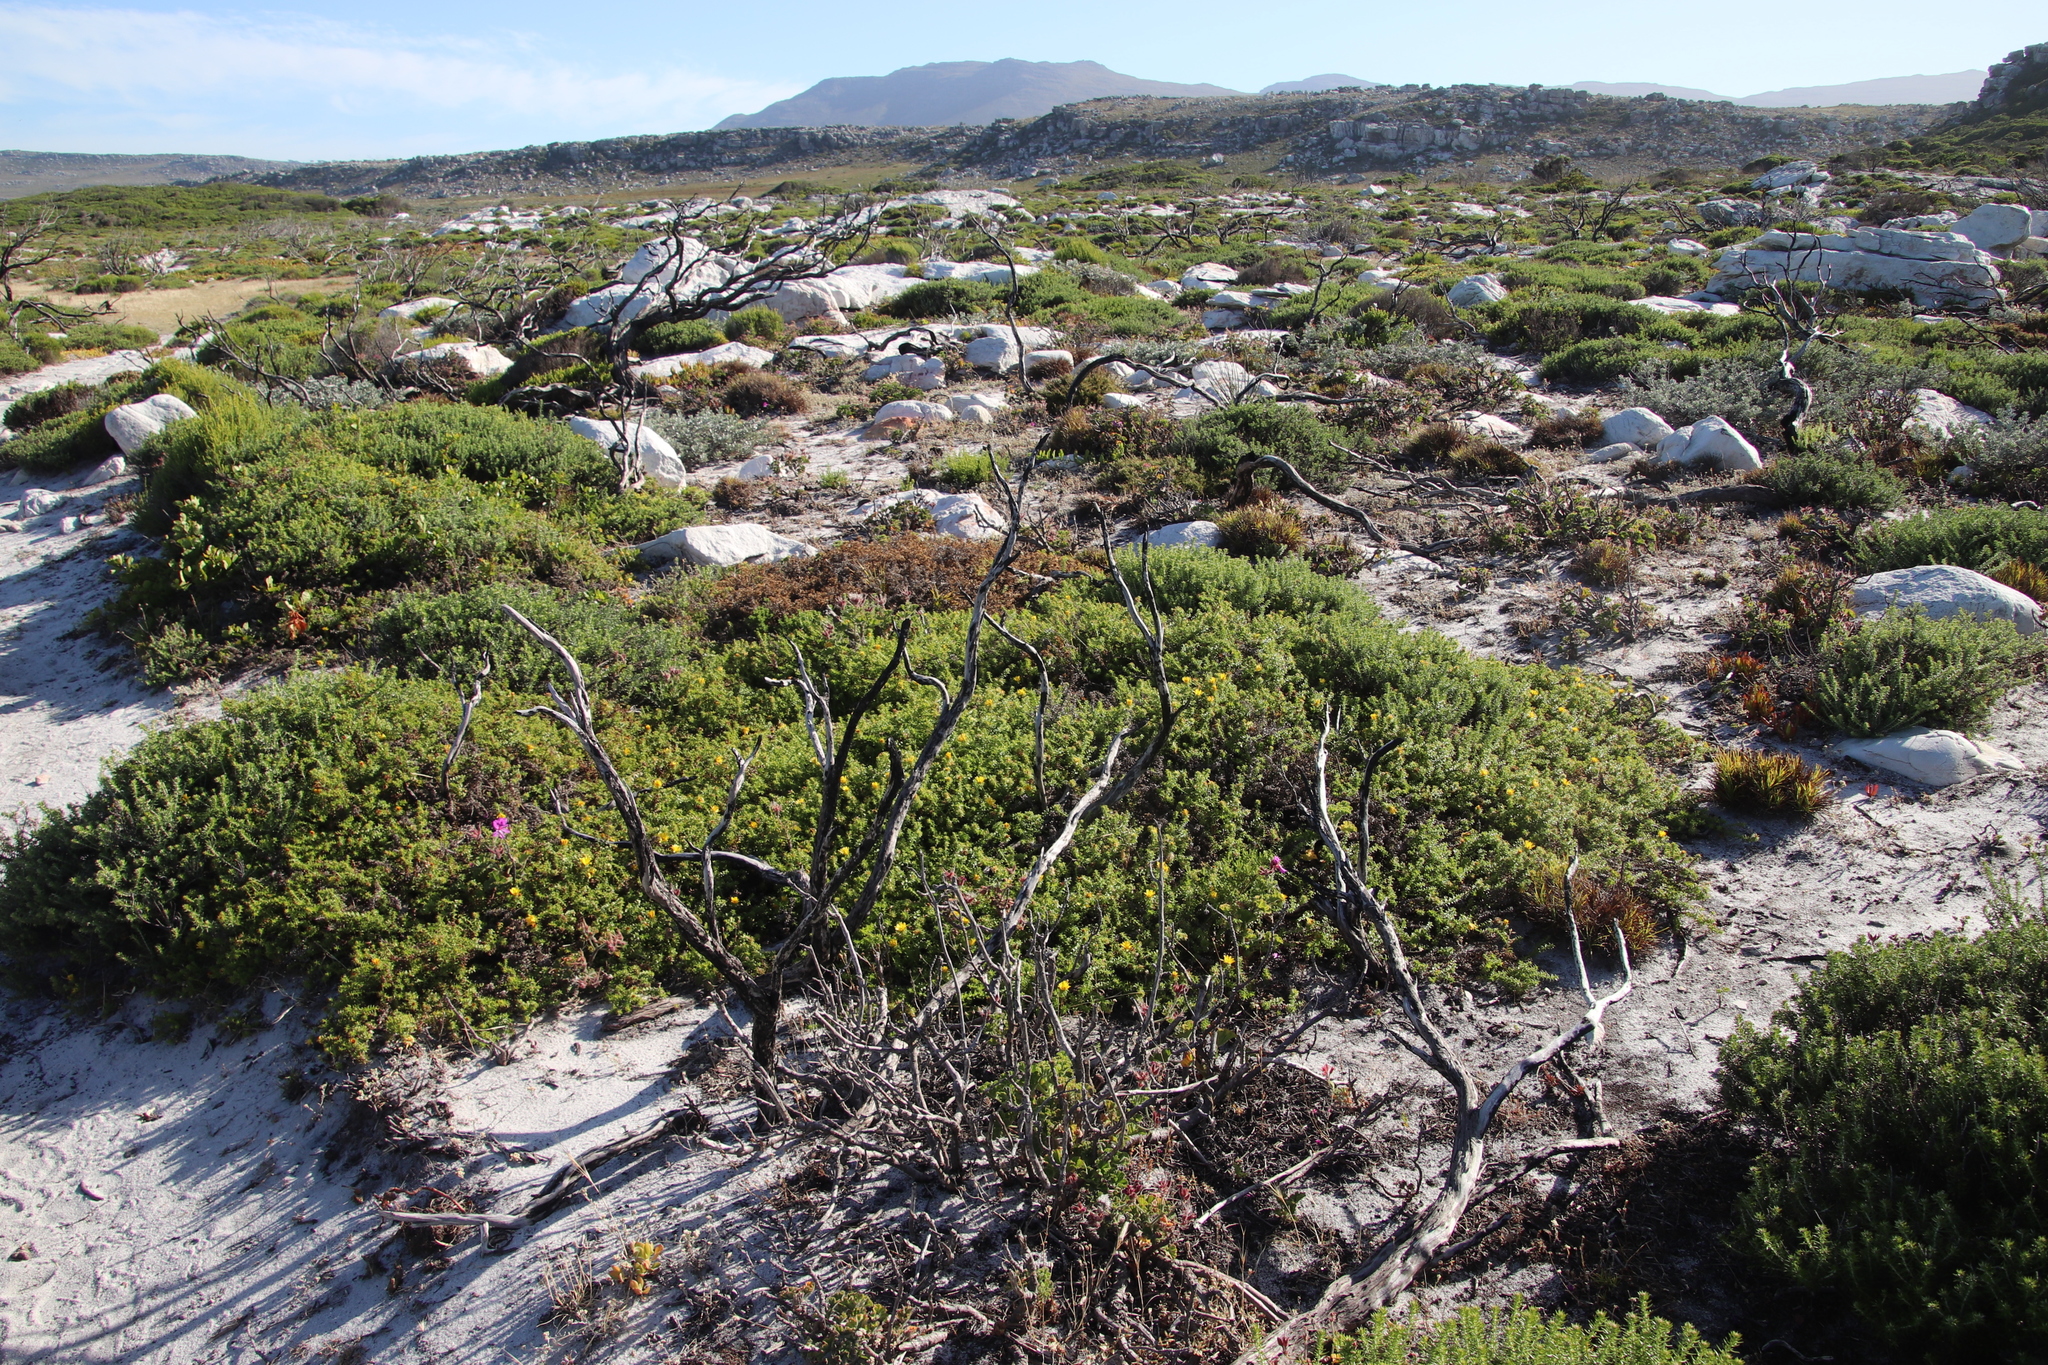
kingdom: Plantae
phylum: Tracheophyta
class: Magnoliopsida
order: Asterales
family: Asteraceae
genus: Cullumia
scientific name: Cullumia setosa
